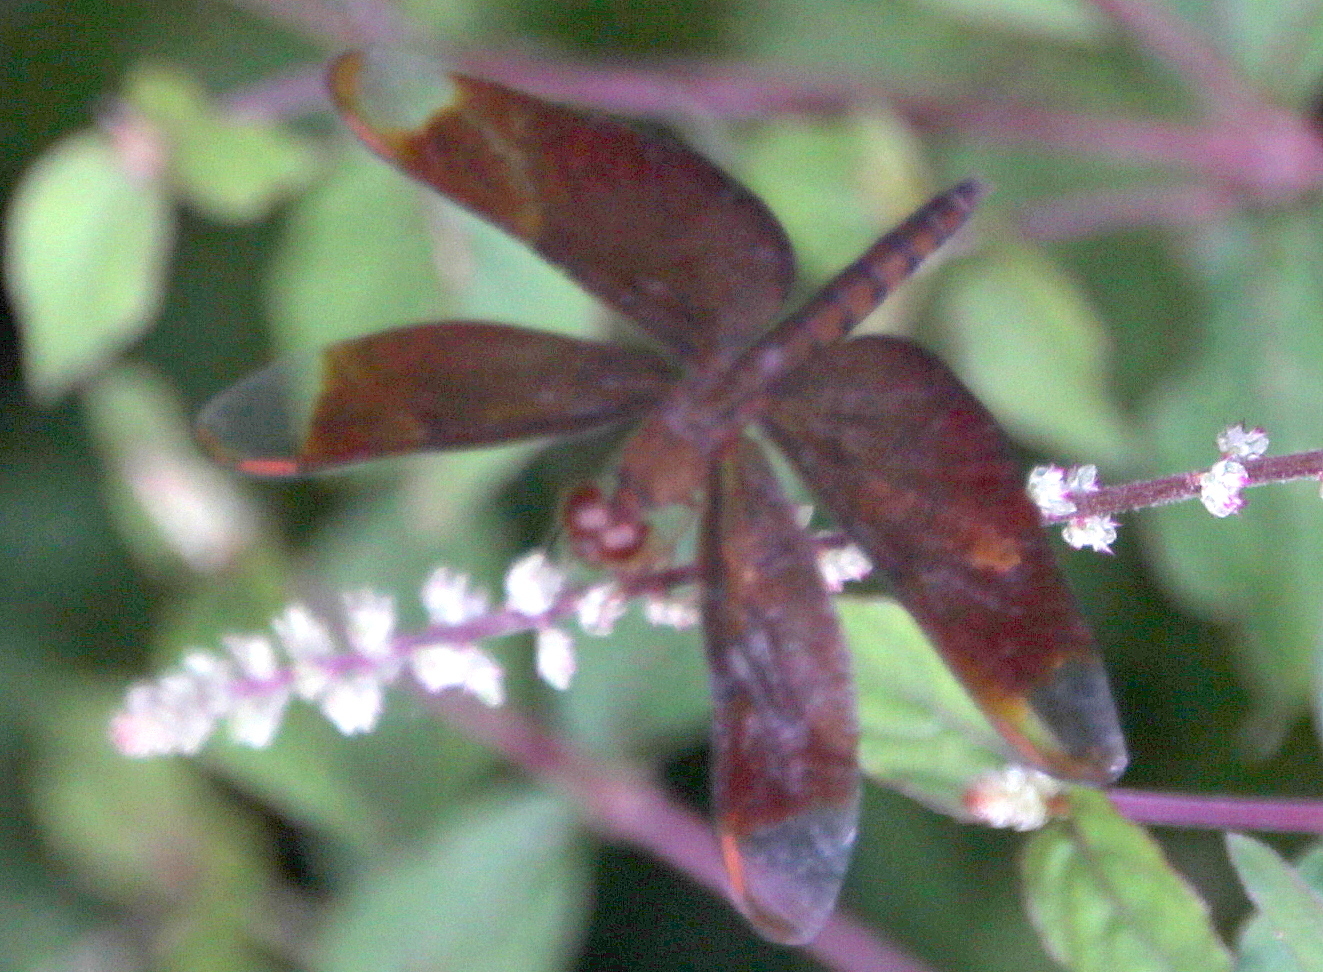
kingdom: Animalia
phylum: Arthropoda
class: Insecta
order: Odonata
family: Libellulidae
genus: Neurothemis
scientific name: Neurothemis fulvia
